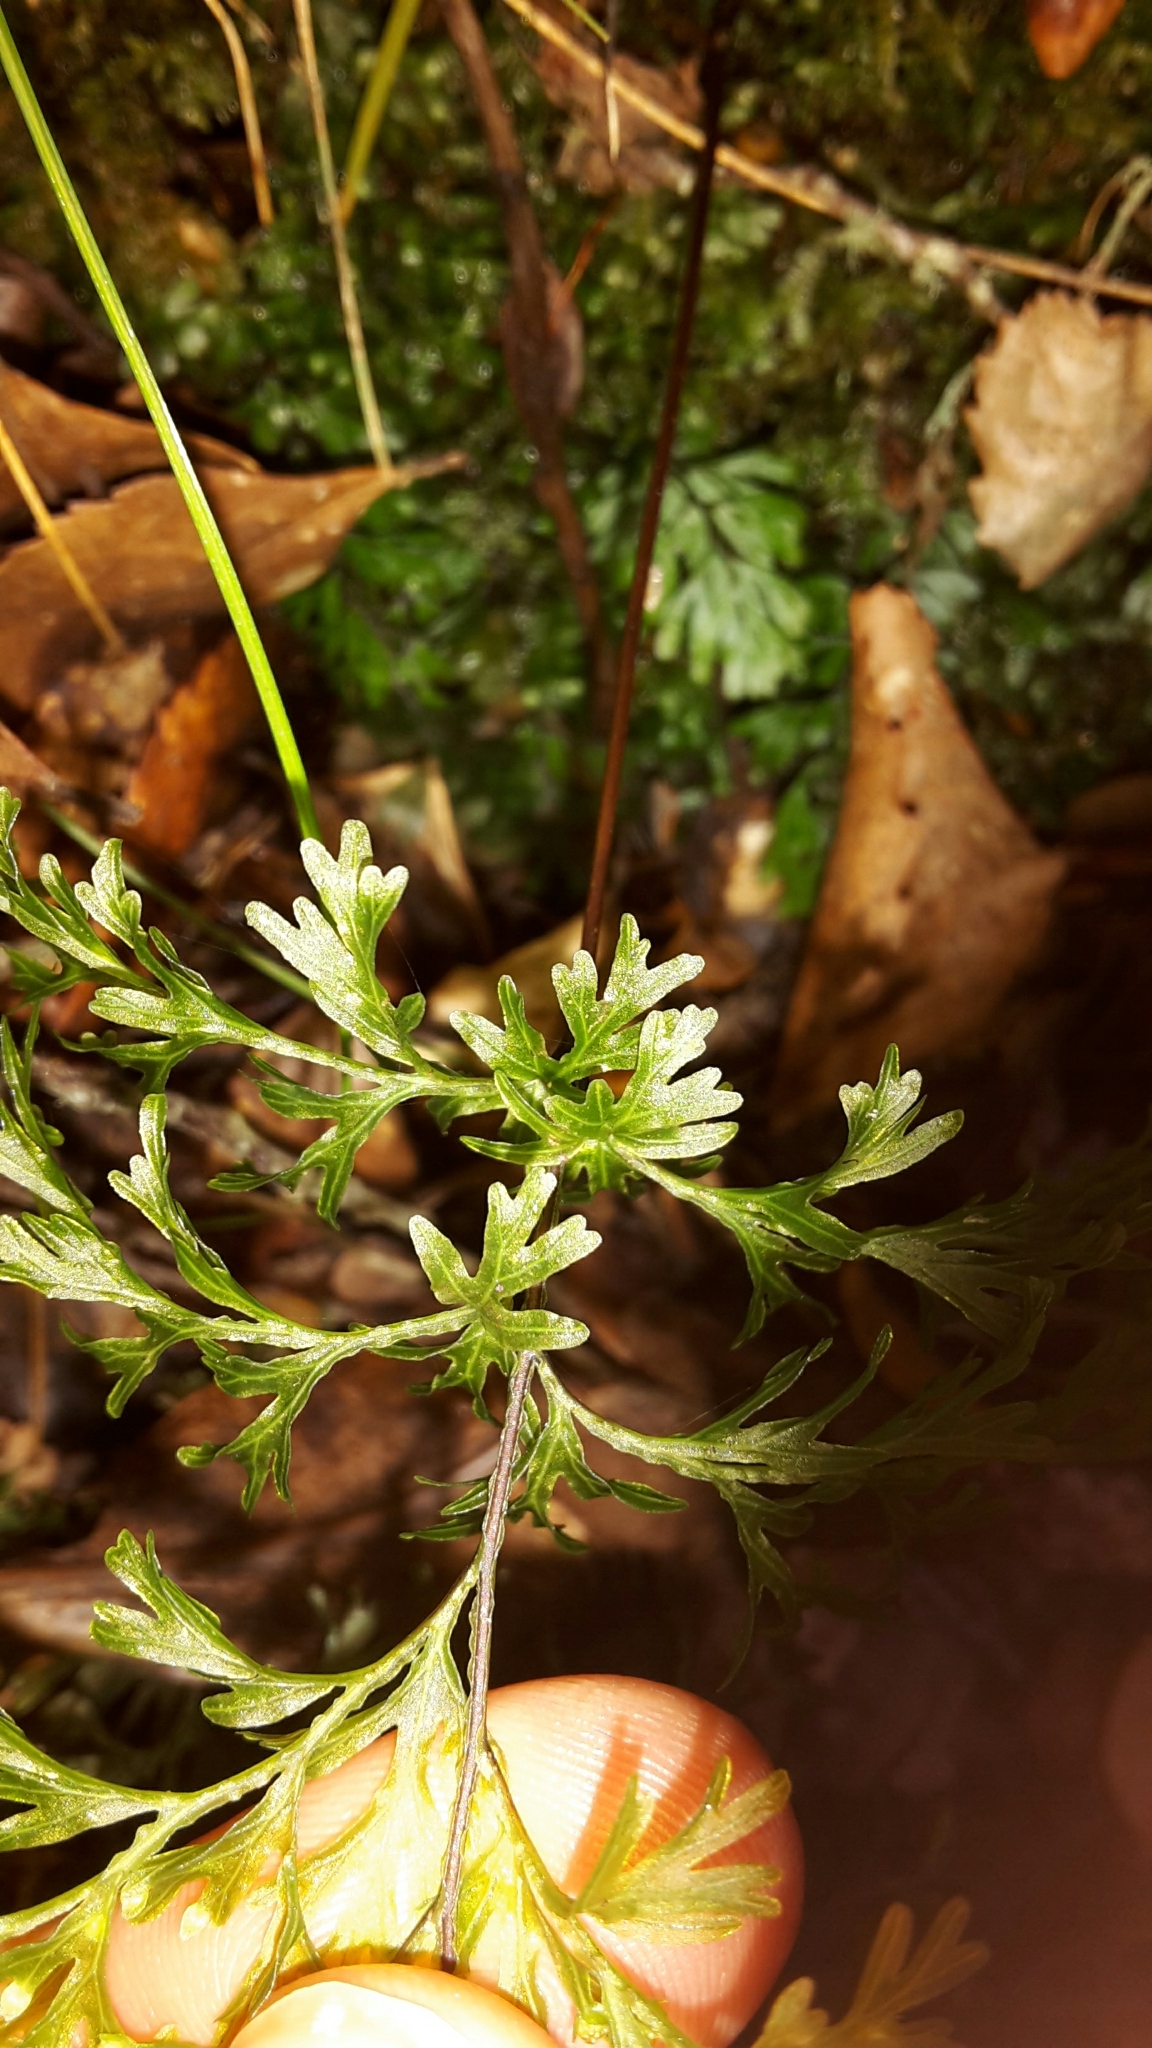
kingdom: Plantae
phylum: Tracheophyta
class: Polypodiopsida
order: Hymenophyllales
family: Hymenophyllaceae
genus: Hymenophyllum
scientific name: Hymenophyllum demissum
